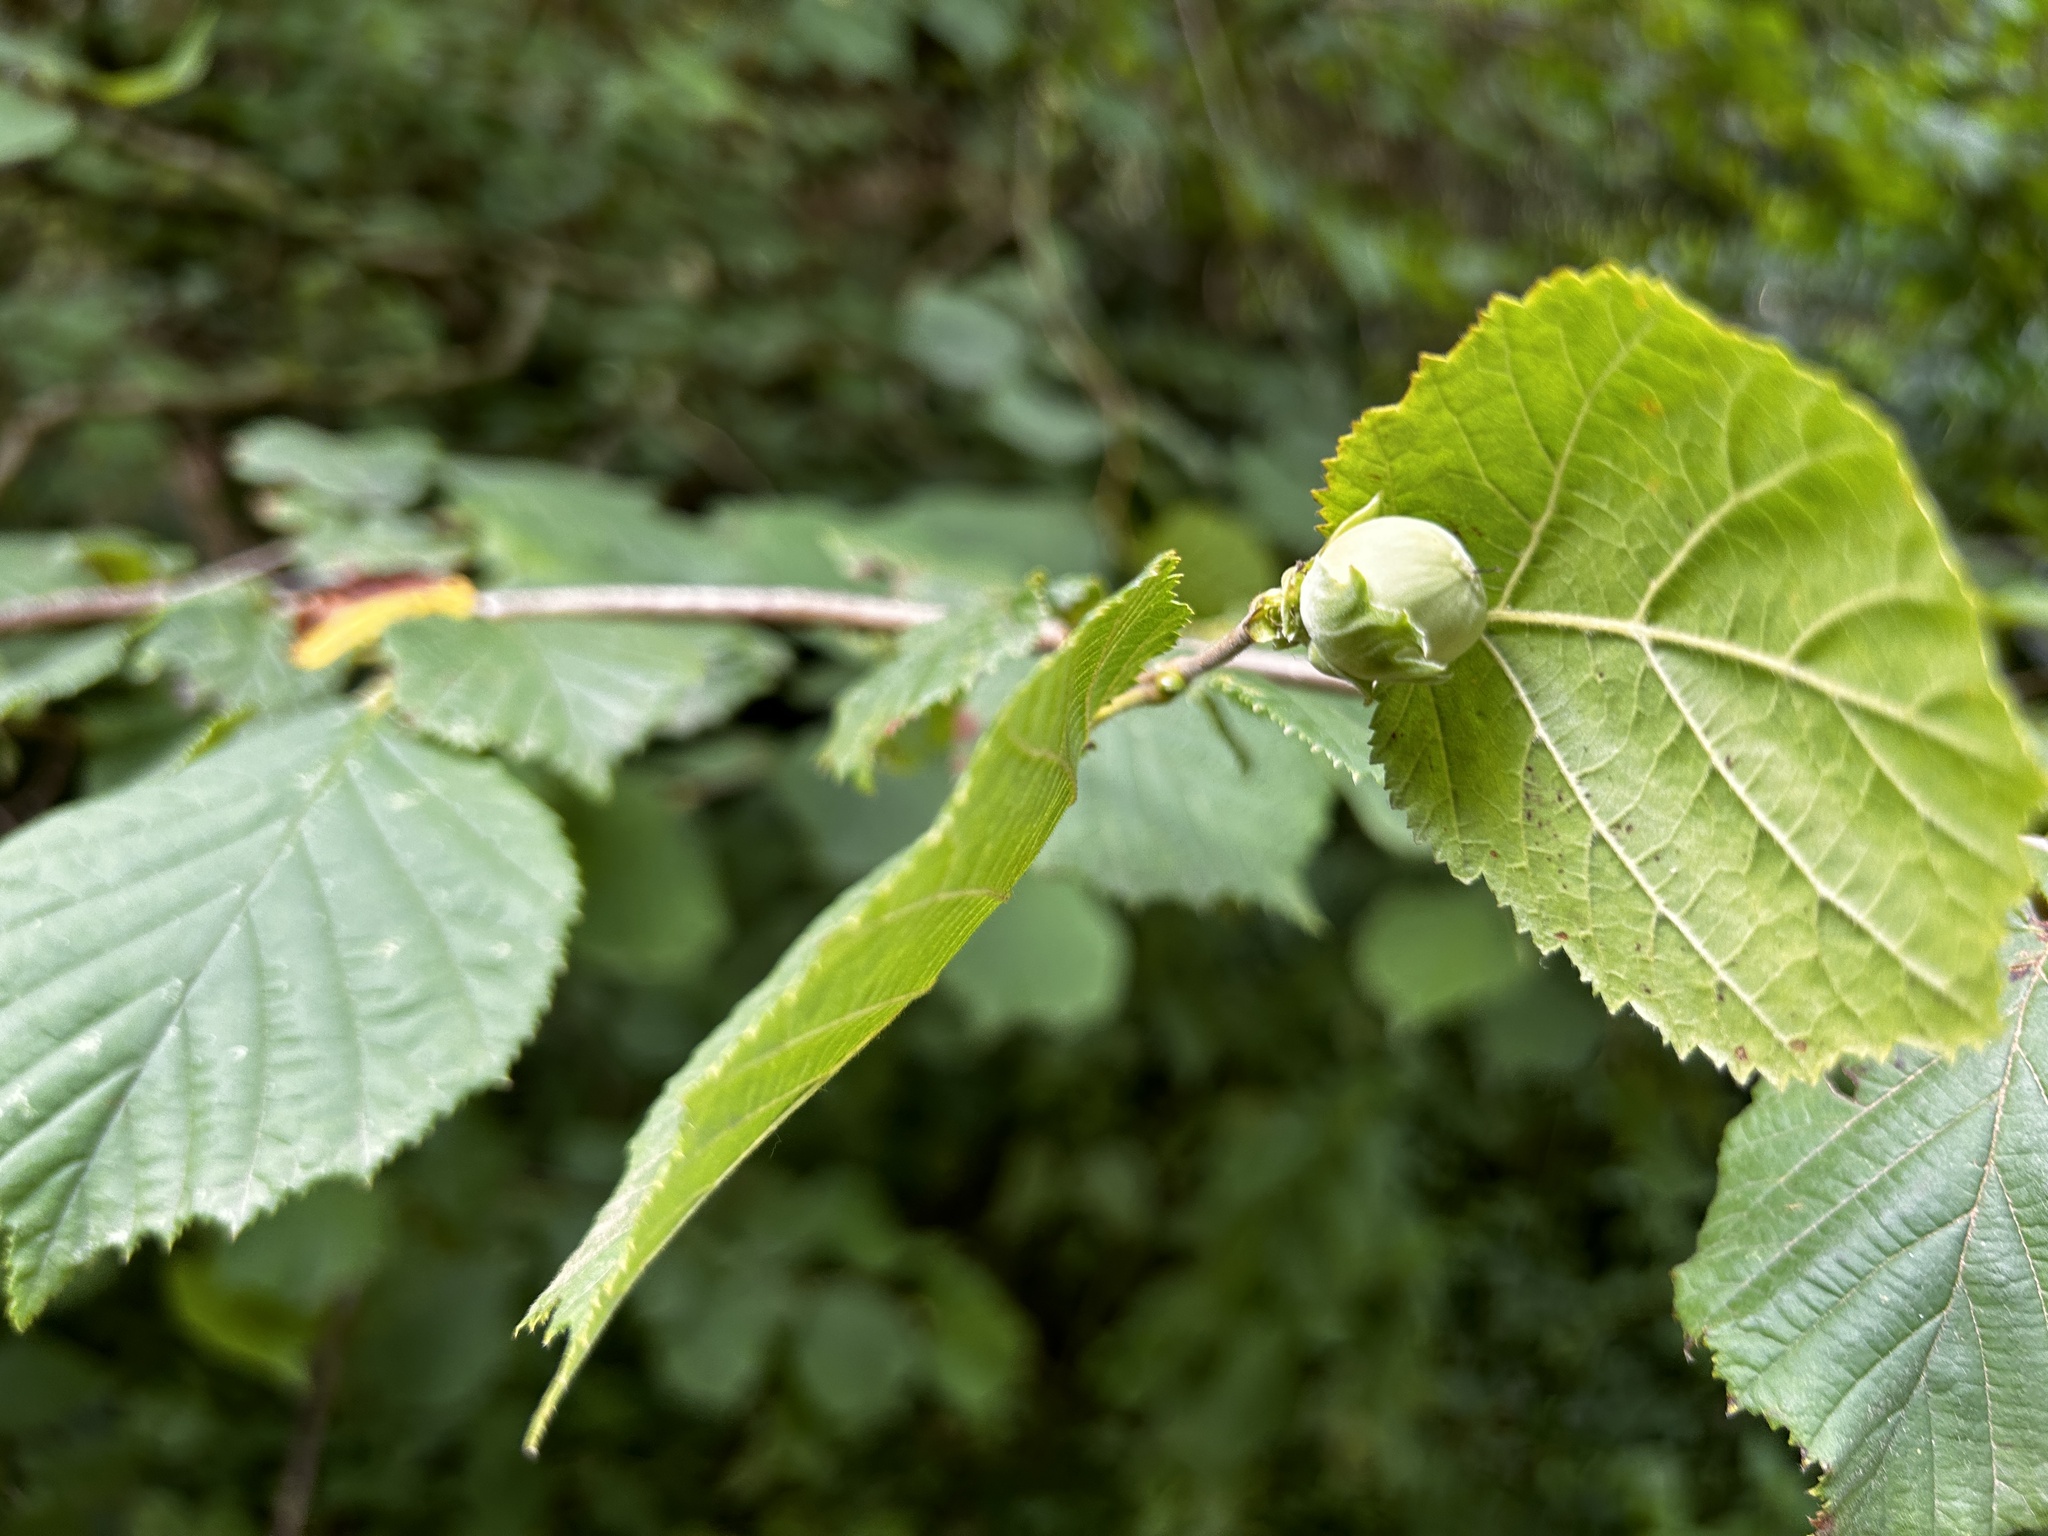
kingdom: Plantae
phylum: Tracheophyta
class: Magnoliopsida
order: Fagales
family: Betulaceae
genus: Corylus
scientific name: Corylus avellana
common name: European hazel
